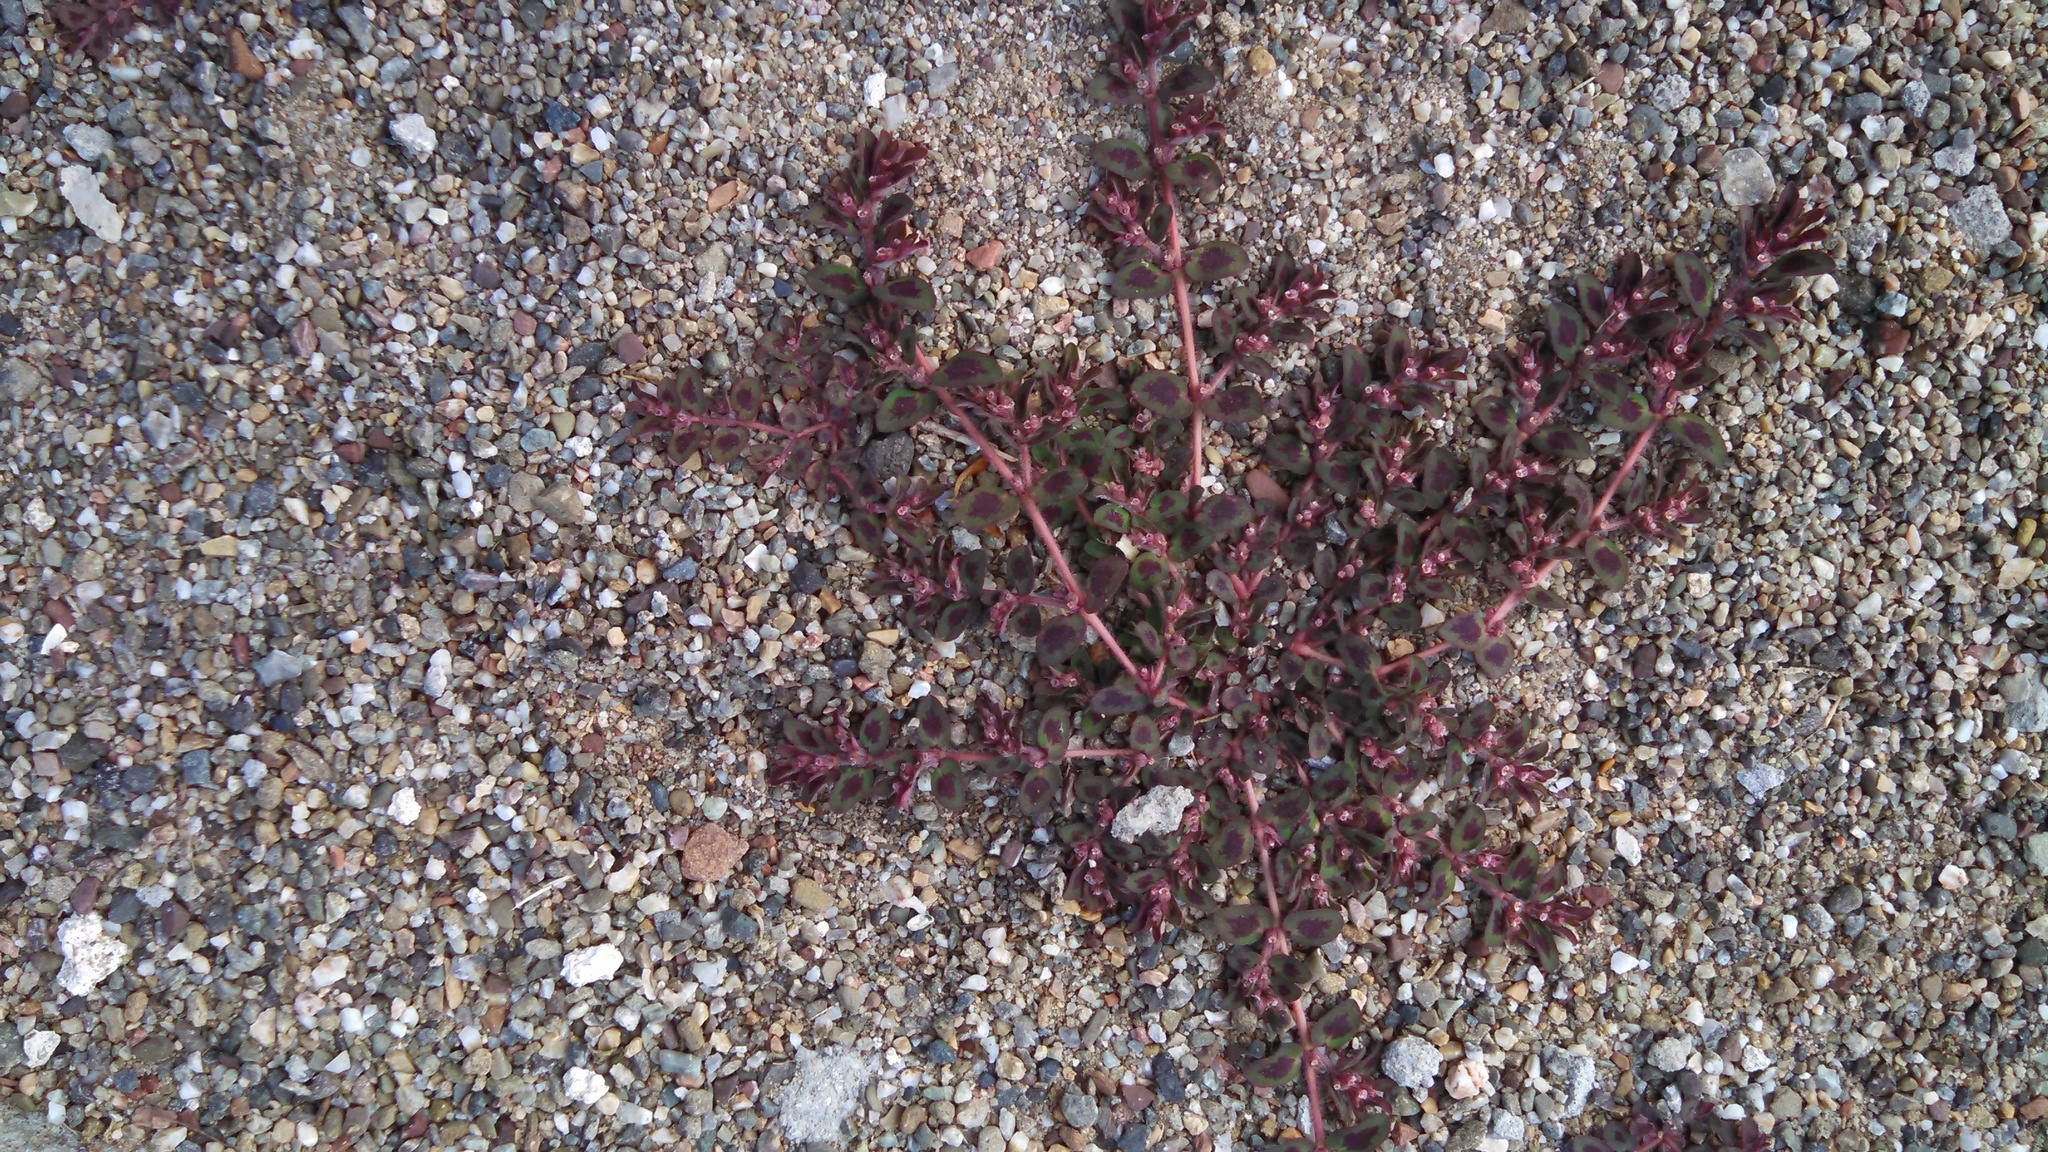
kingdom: Plantae
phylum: Tracheophyta
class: Magnoliopsida
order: Malpighiales
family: Euphorbiaceae
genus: Euphorbia
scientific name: Euphorbia maculata
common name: Spotted spurge
